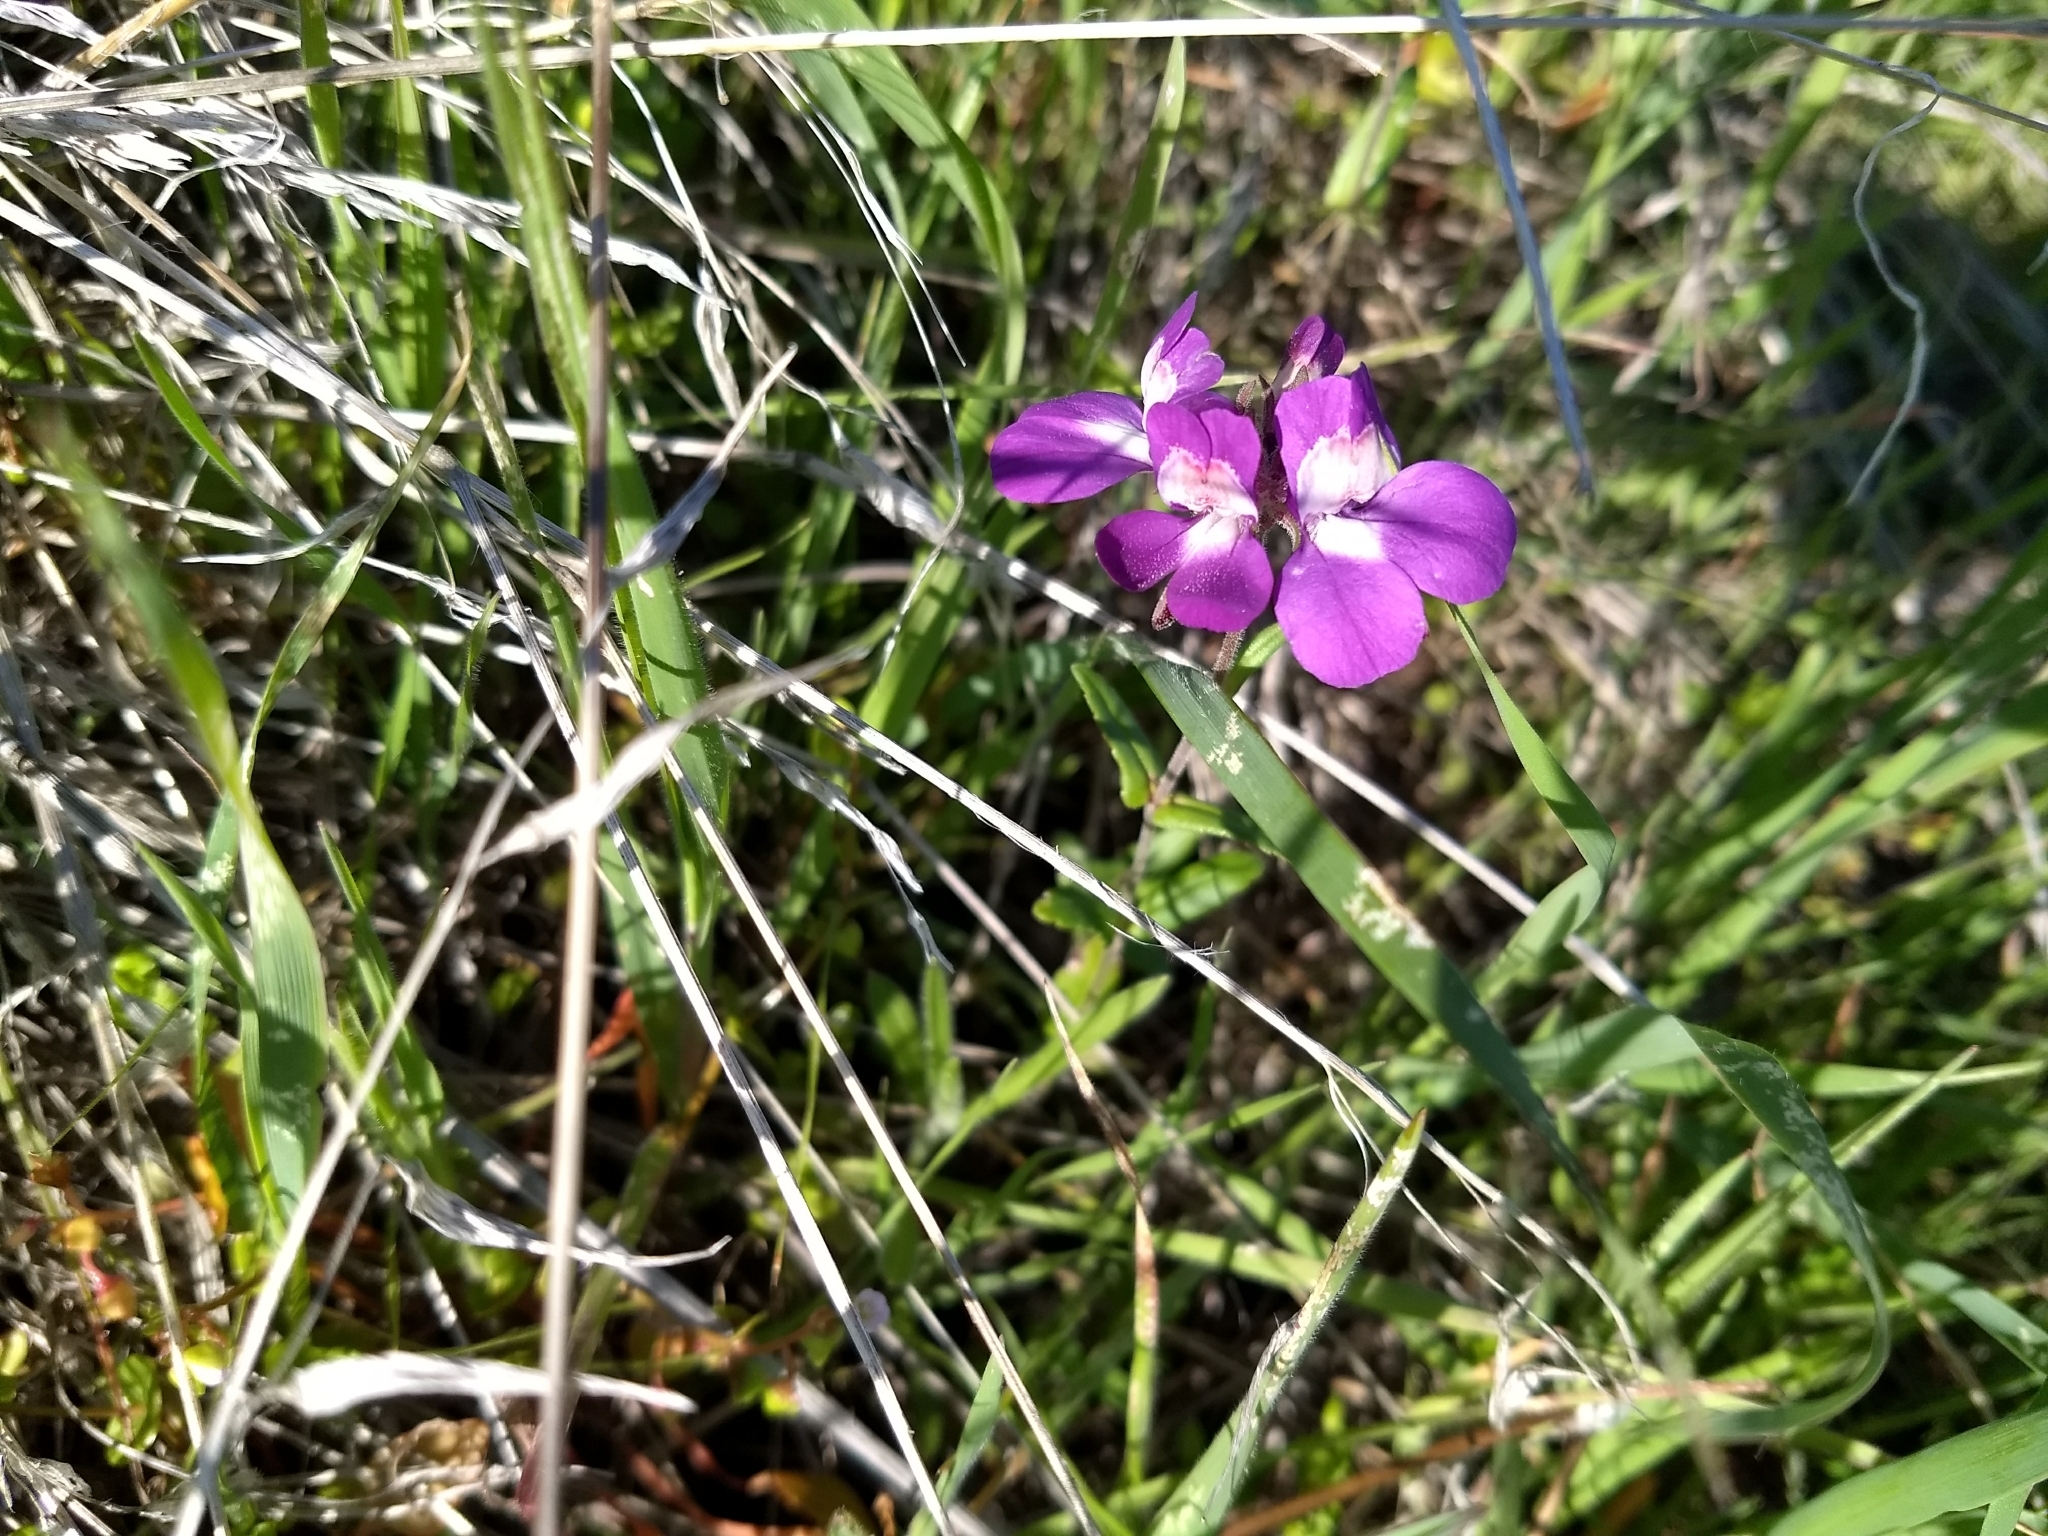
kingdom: Plantae
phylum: Tracheophyta
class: Magnoliopsida
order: Lamiales
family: Plantaginaceae
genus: Collinsia
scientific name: Collinsia heterophylla
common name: Chinese-houses
